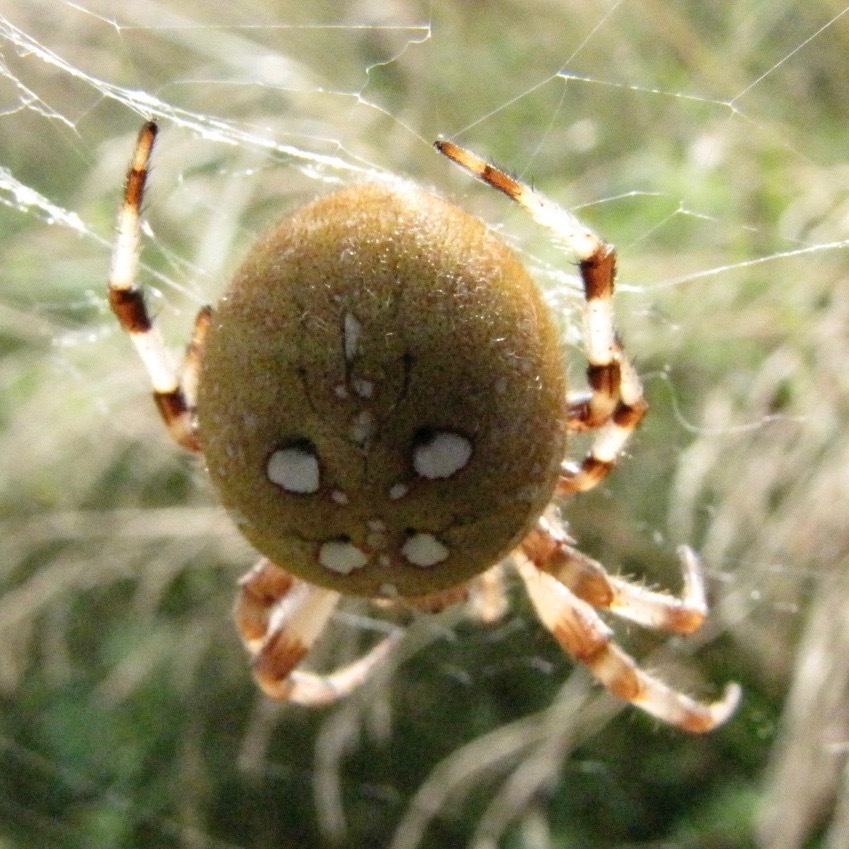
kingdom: Animalia
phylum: Arthropoda
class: Arachnida
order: Araneae
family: Araneidae
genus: Araneus
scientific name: Araneus quadratus
